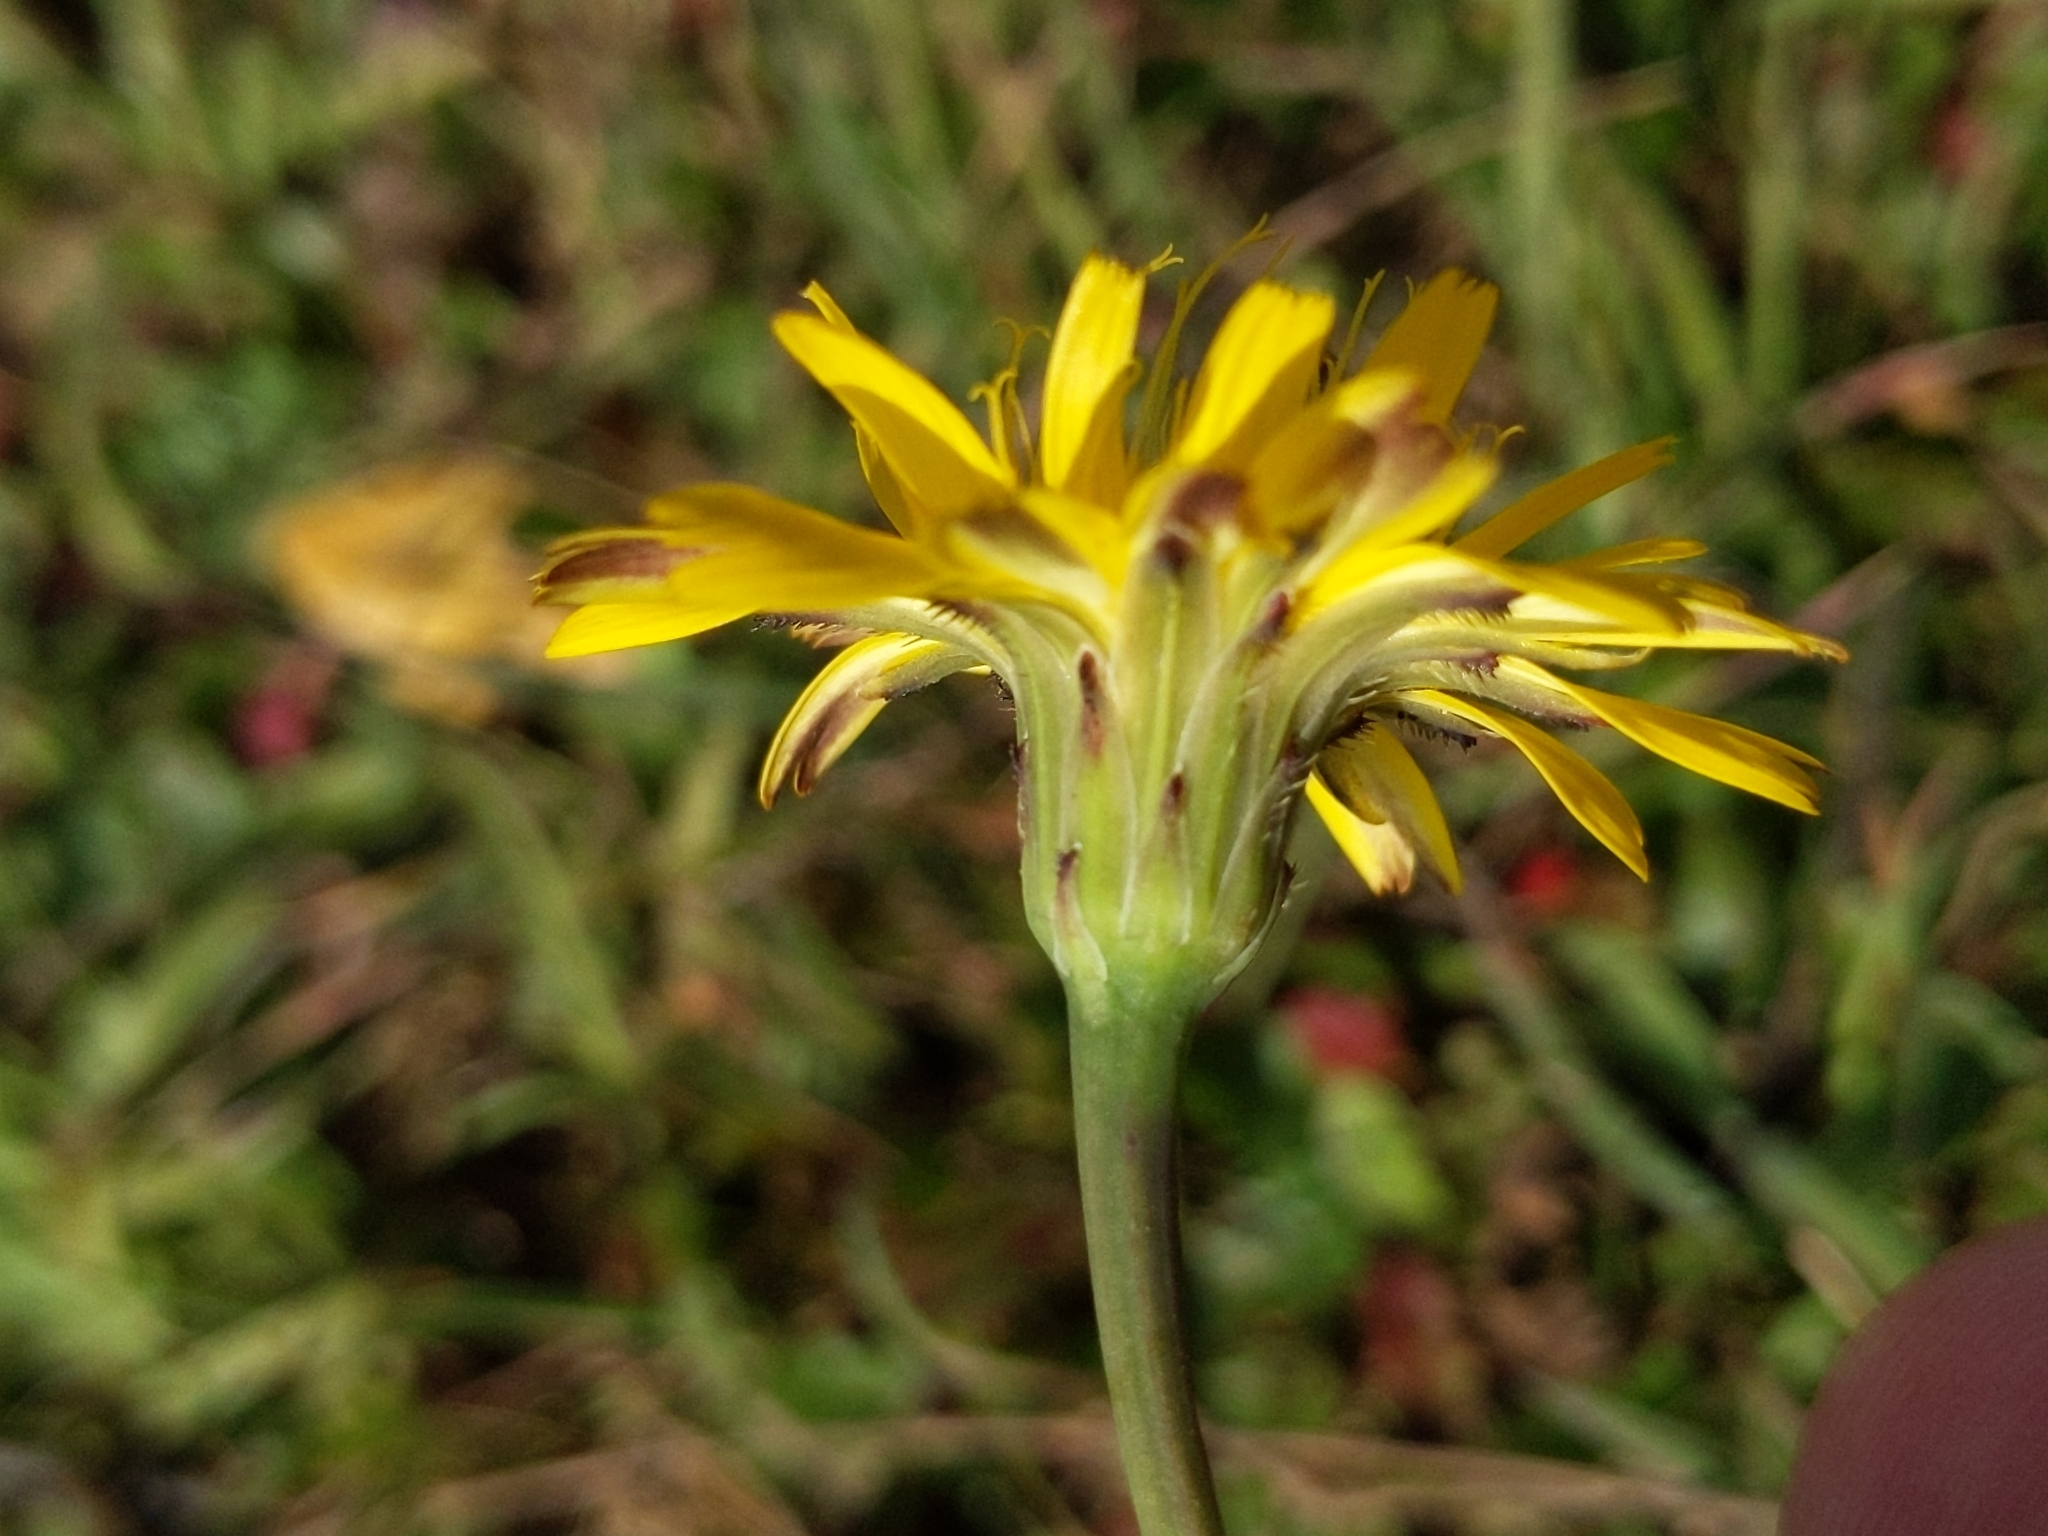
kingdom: Plantae
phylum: Tracheophyta
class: Magnoliopsida
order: Asterales
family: Asteraceae
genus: Hypochaeris
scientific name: Hypochaeris radicata
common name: Flatweed
